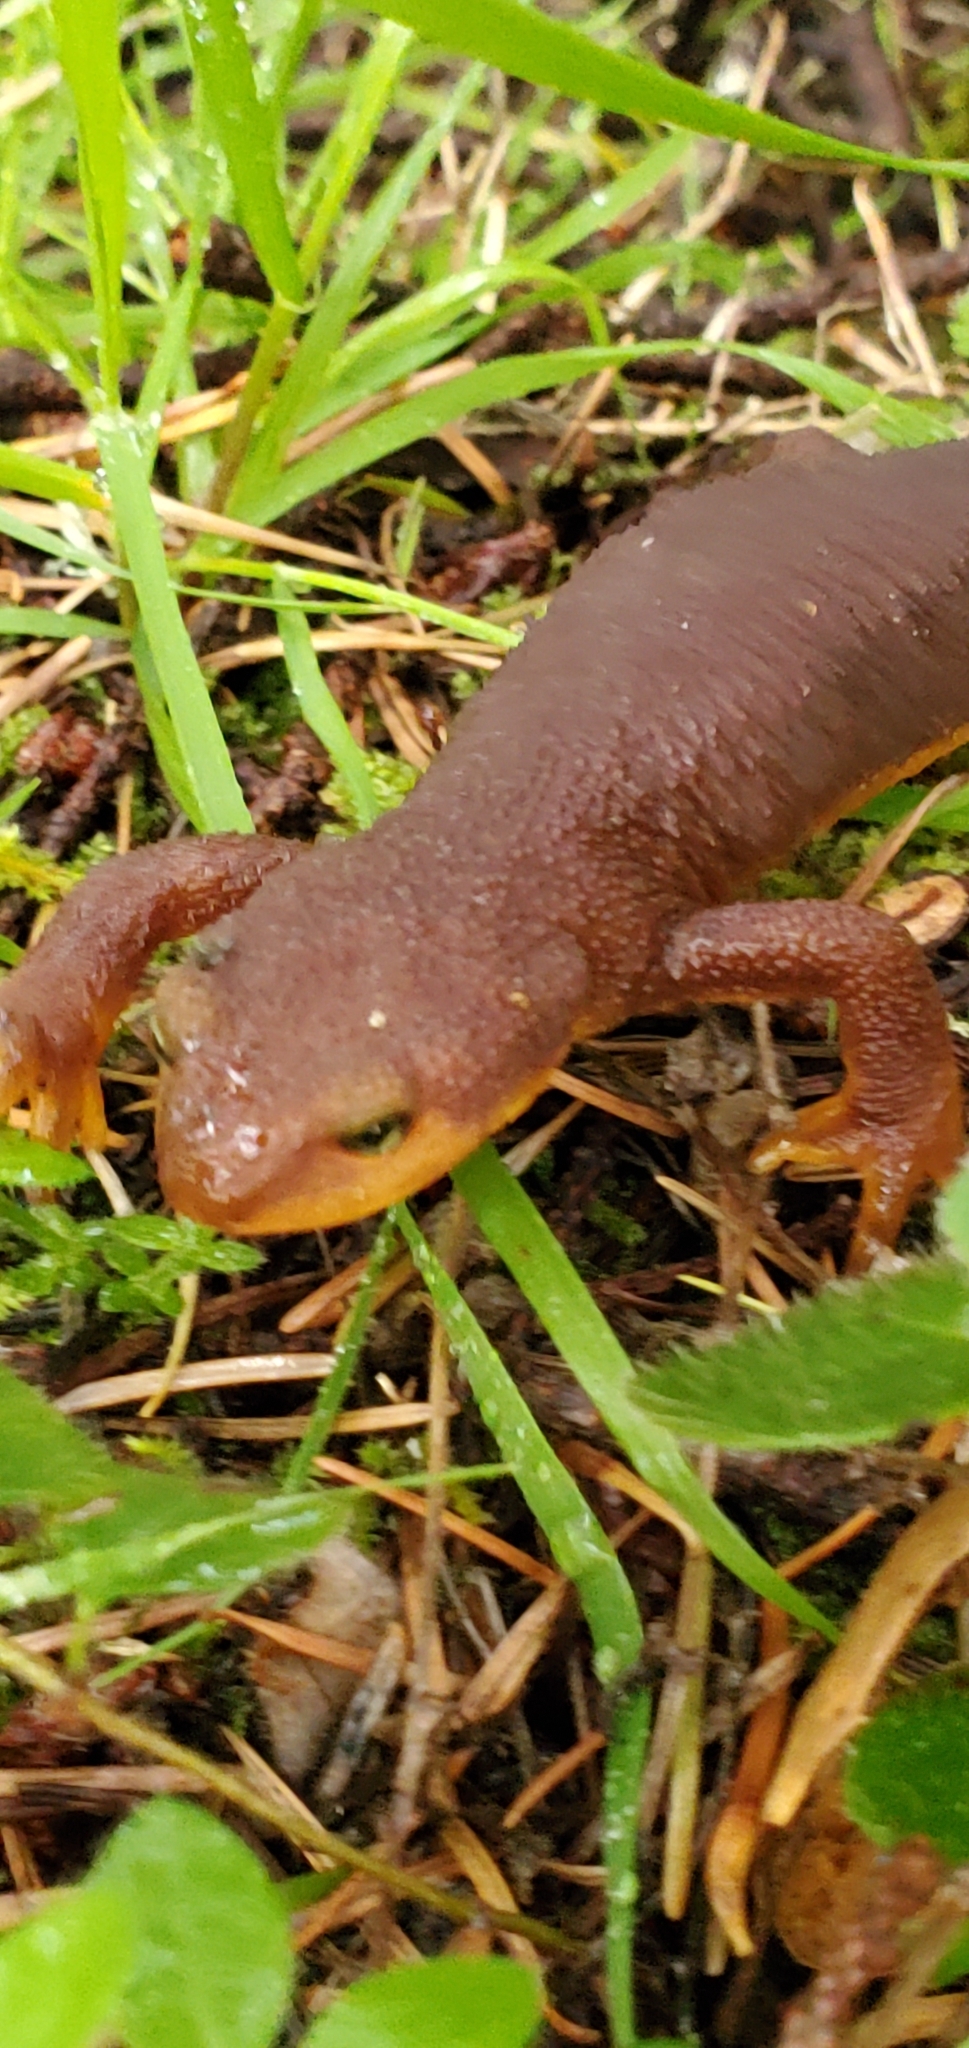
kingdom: Animalia
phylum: Chordata
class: Amphibia
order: Caudata
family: Salamandridae
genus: Taricha
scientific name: Taricha torosa
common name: California newt
